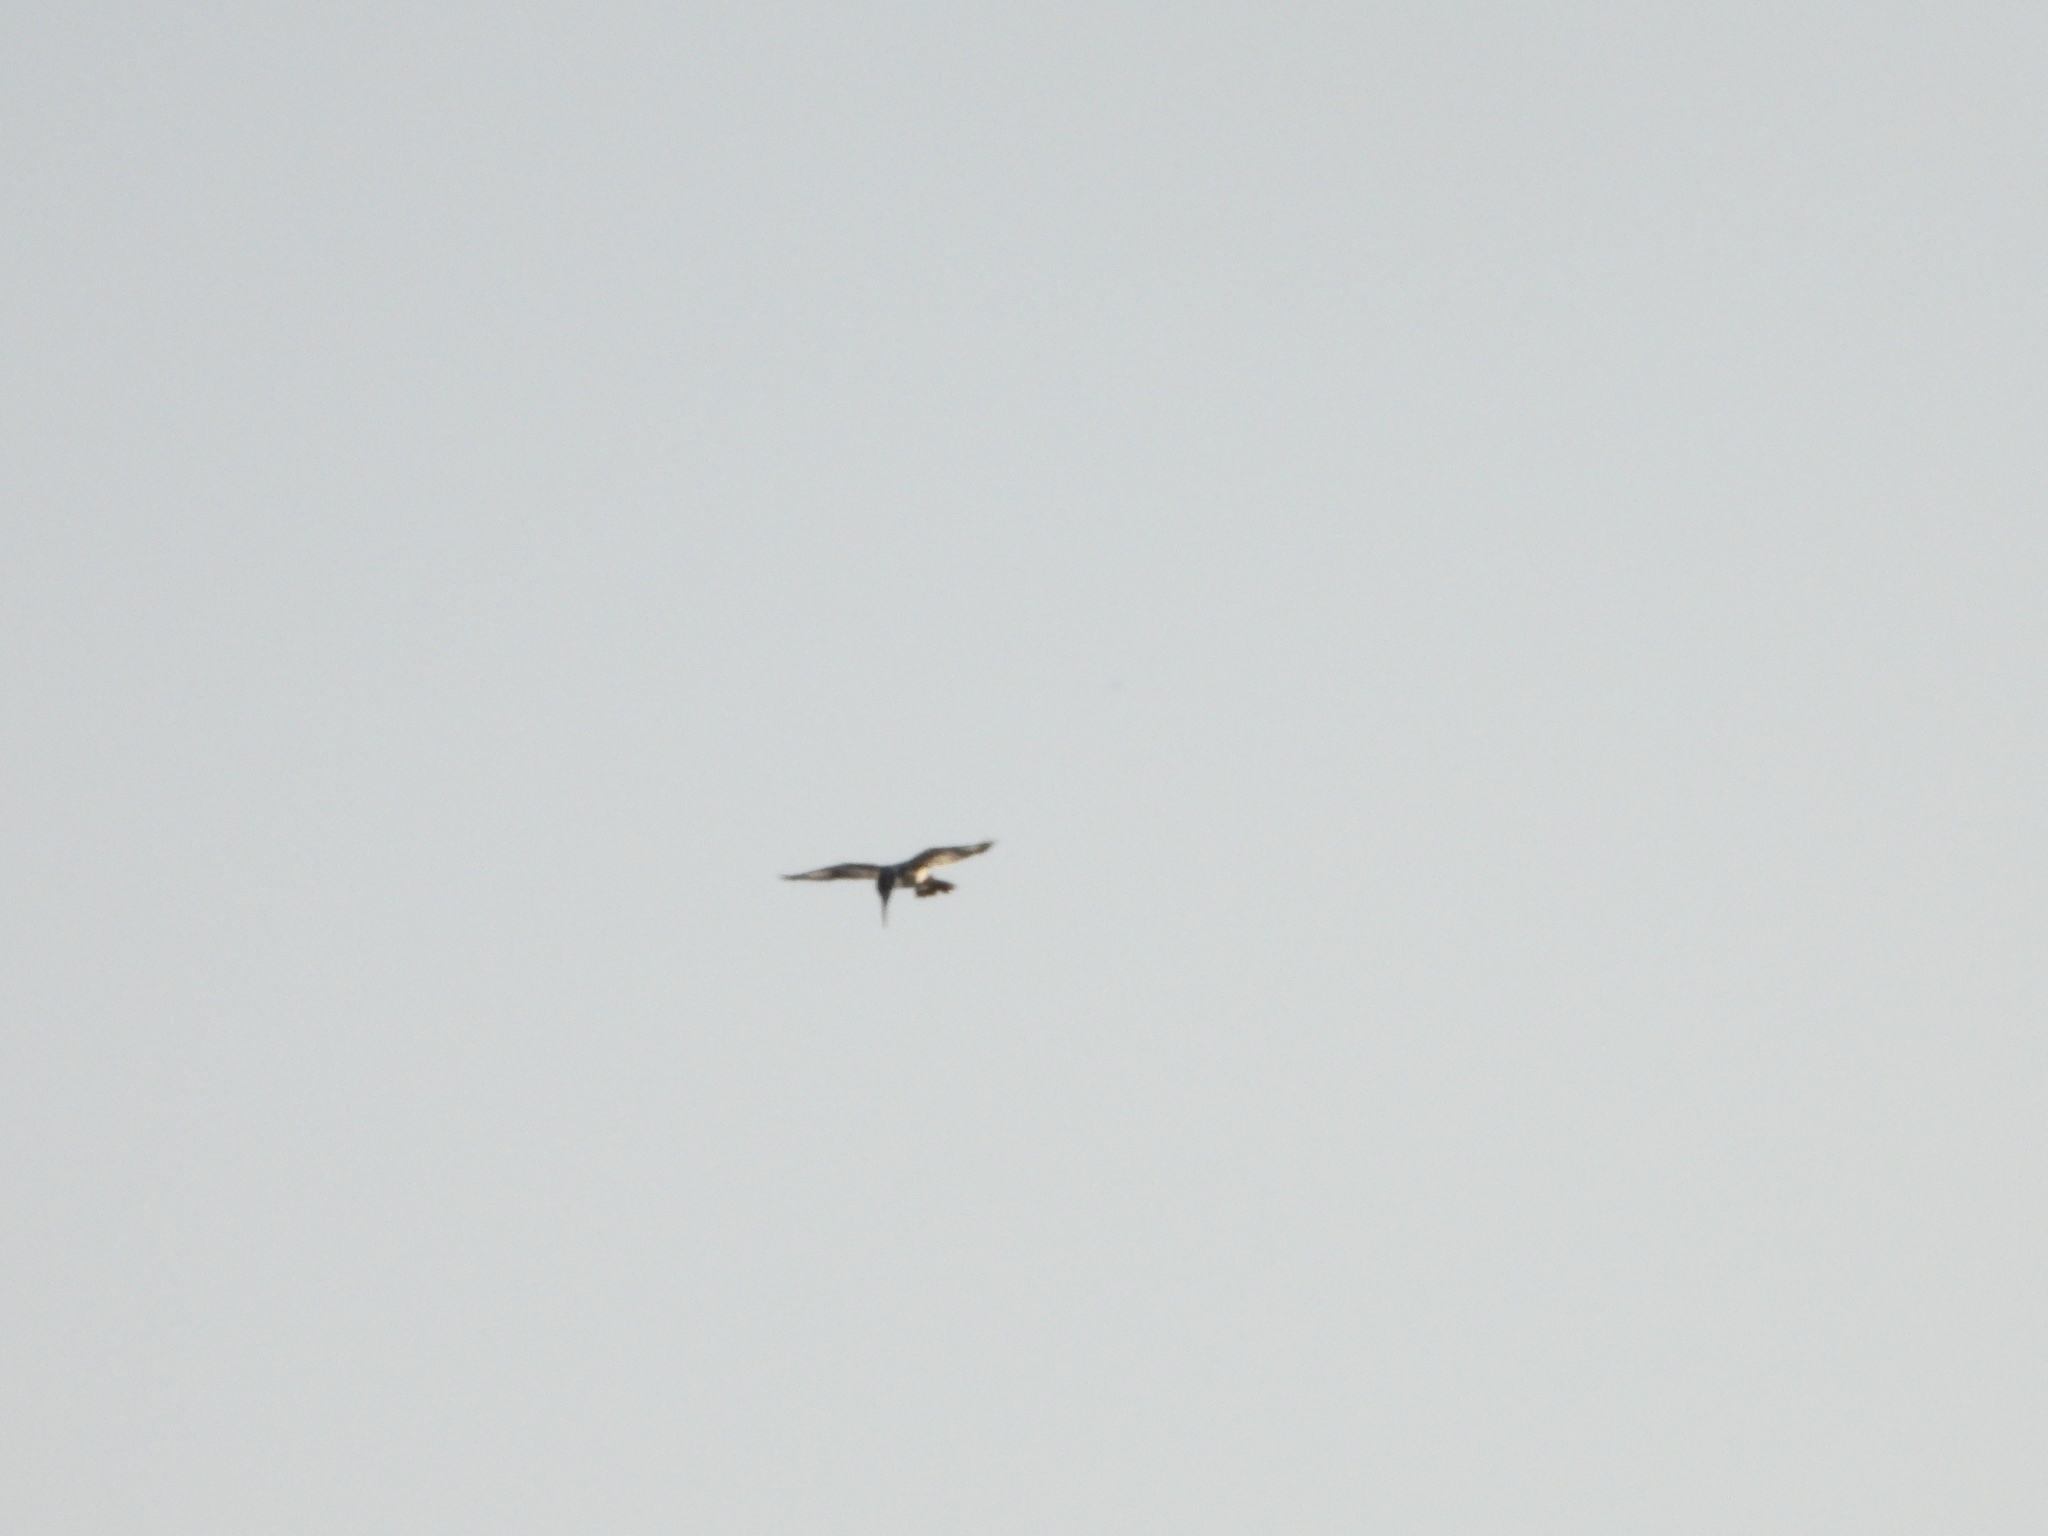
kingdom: Animalia
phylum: Chordata
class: Aves
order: Coraciiformes
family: Alcedinidae
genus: Ceryle
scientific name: Ceryle rudis
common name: Pied kingfisher
